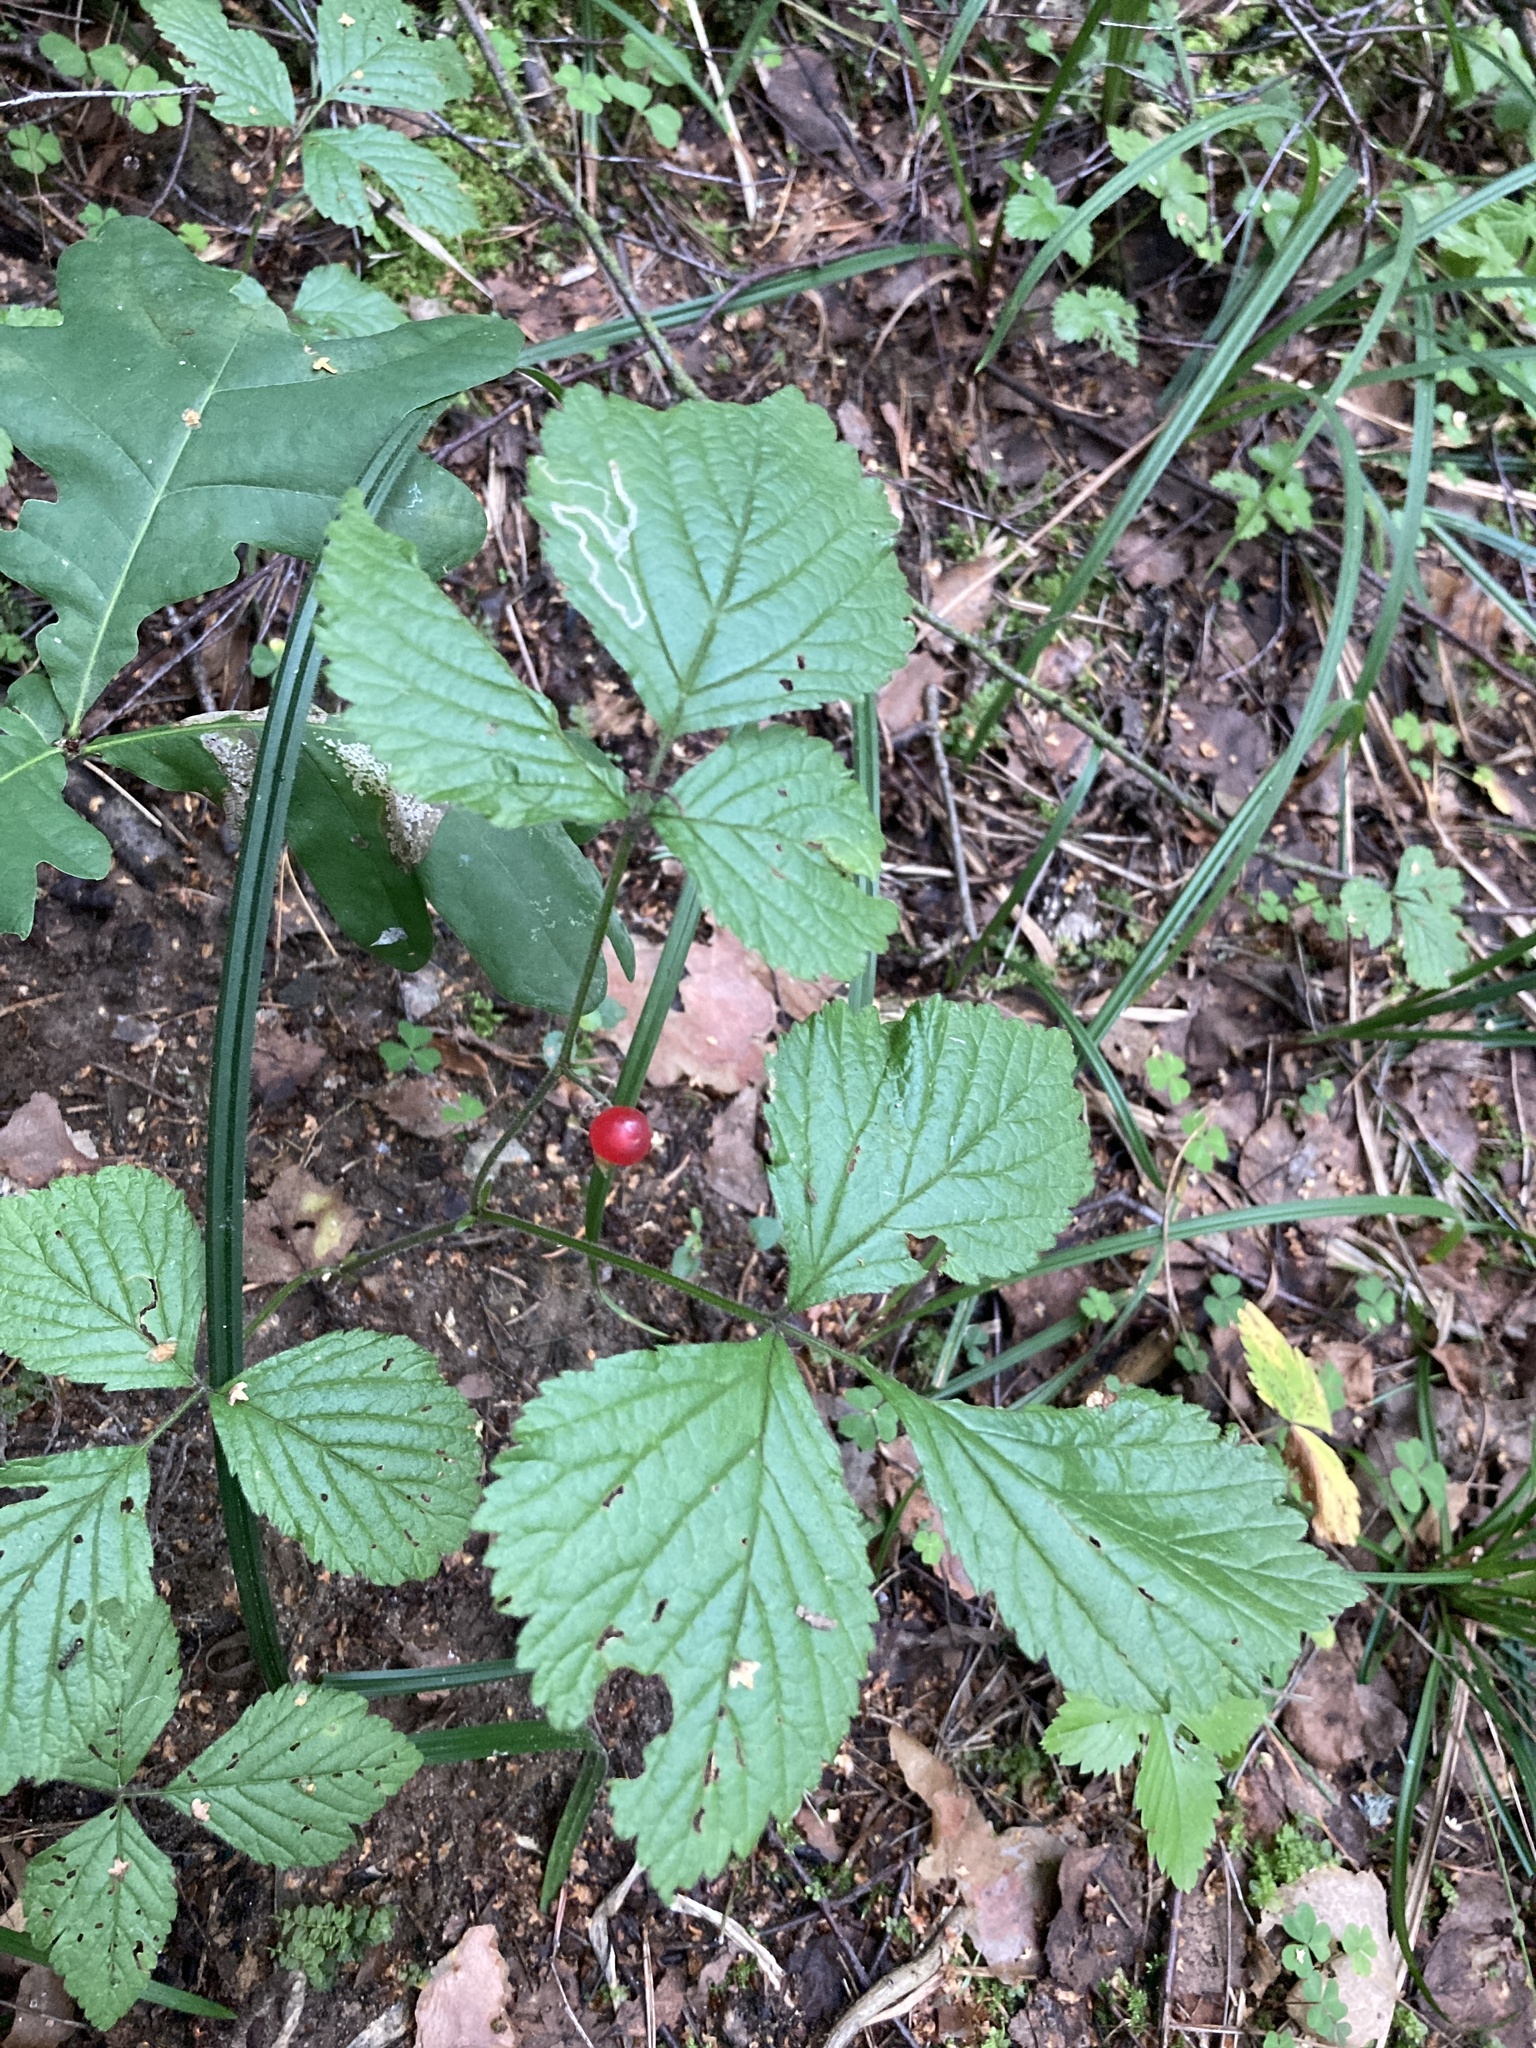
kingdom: Plantae
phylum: Tracheophyta
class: Magnoliopsida
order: Rosales
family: Rosaceae
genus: Rubus
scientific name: Rubus saxatilis
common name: Stone bramble
